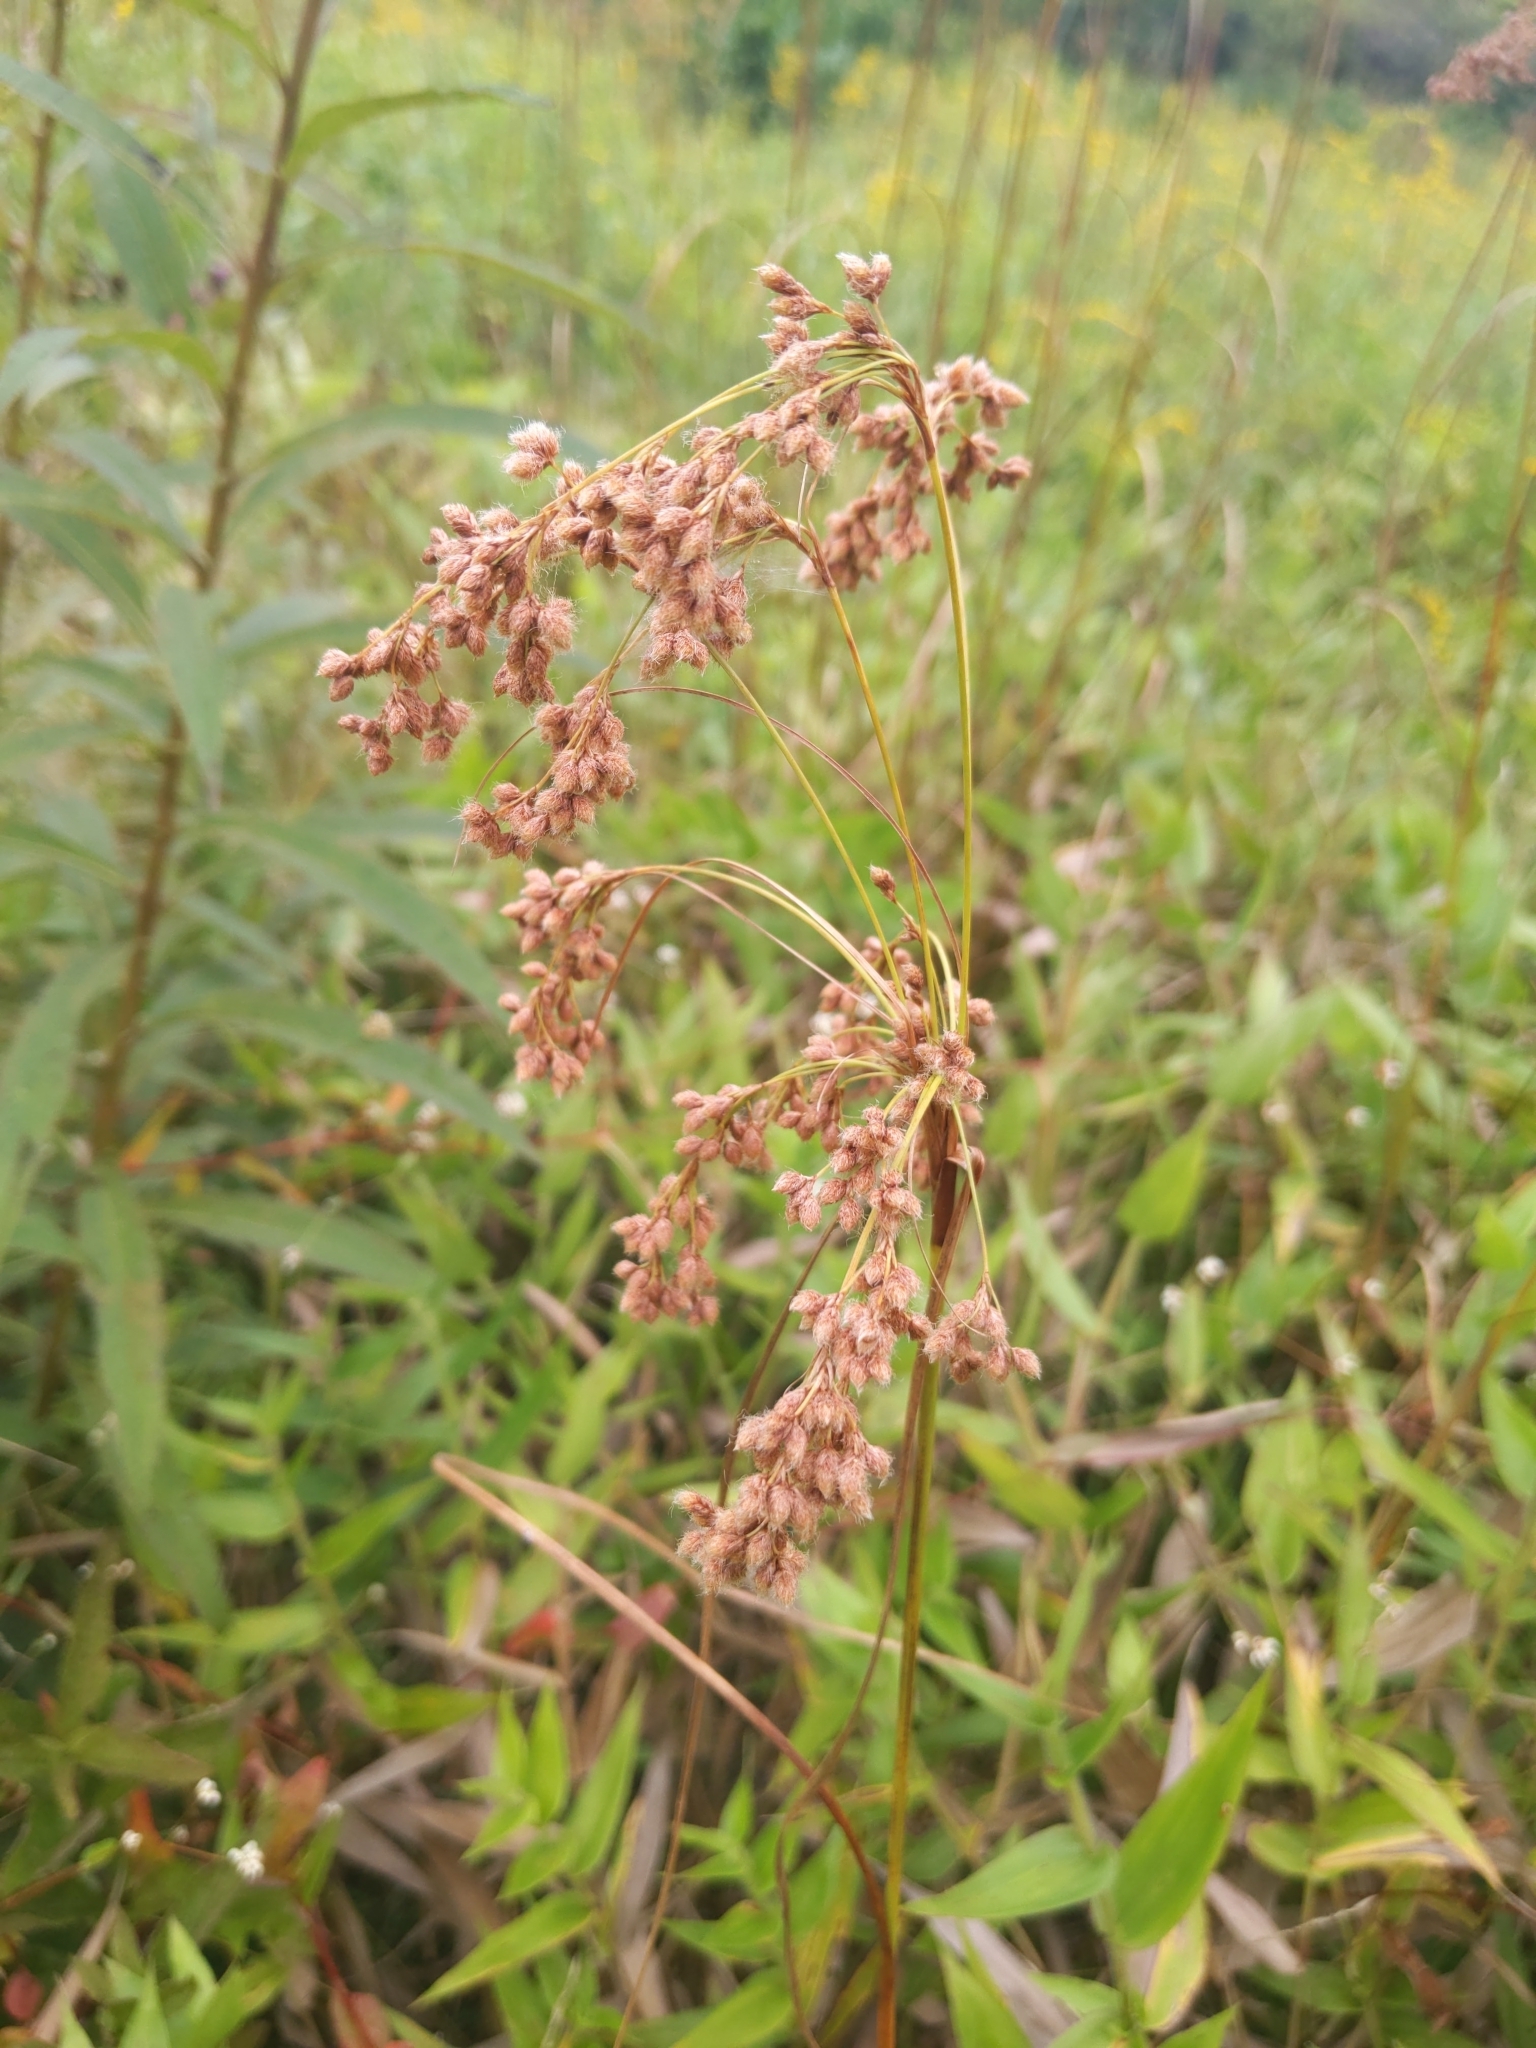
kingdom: Plantae
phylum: Tracheophyta
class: Liliopsida
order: Poales
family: Cyperaceae
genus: Scirpus
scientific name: Scirpus cyperinus
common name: Black-sheathed bulrush
